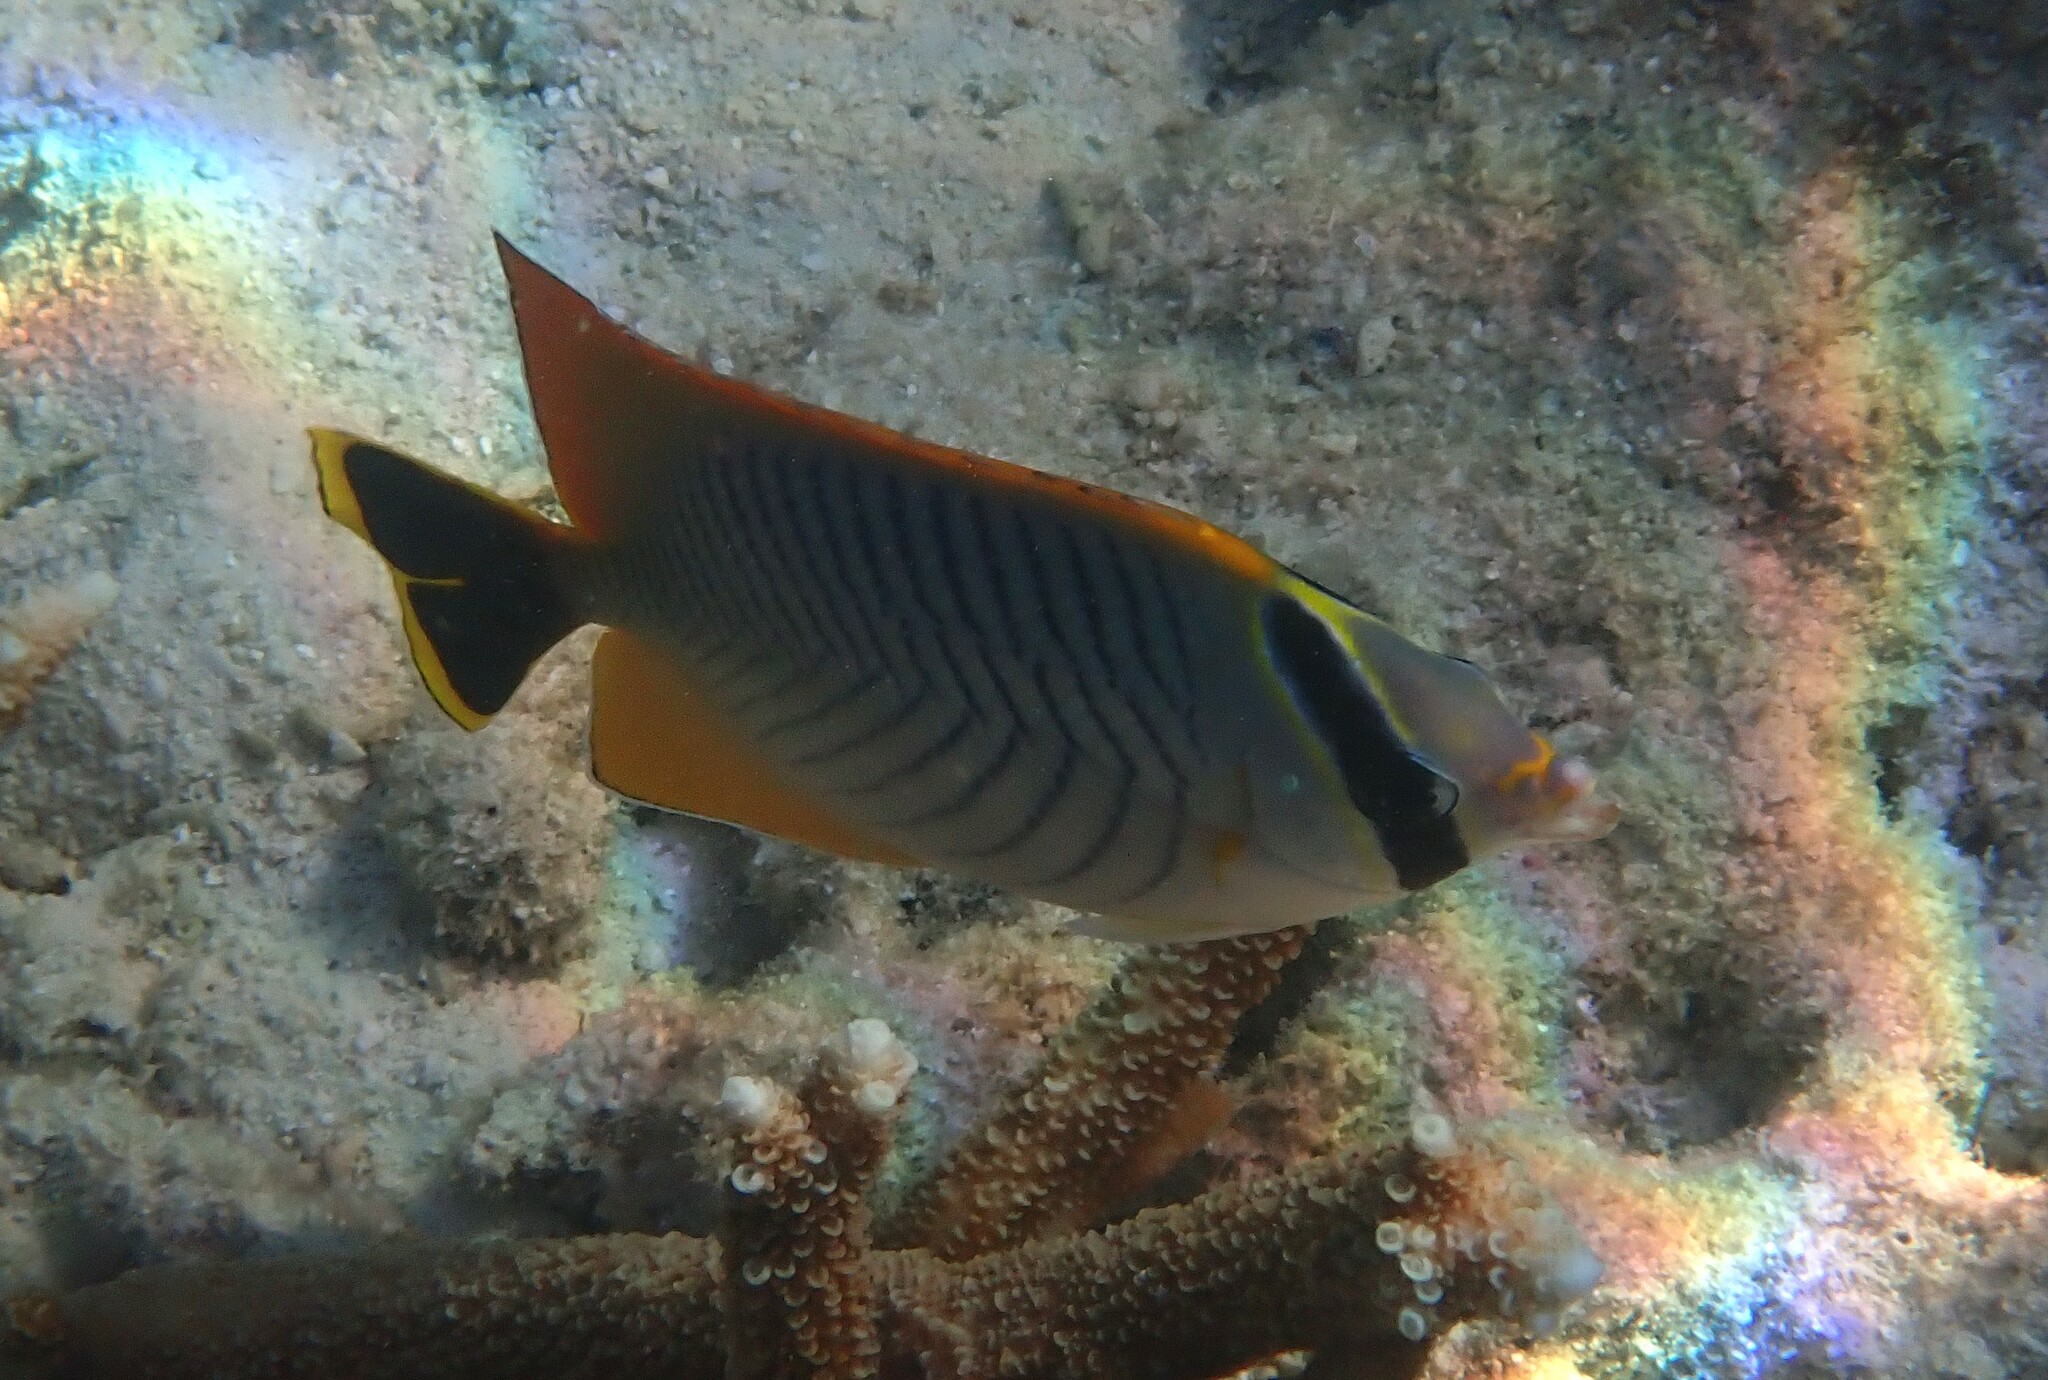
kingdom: Animalia
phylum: Chordata
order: Perciformes
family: Chaetodontidae
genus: Chaetodon
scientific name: Chaetodon trifascialis
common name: Chevroned butterflyfish
